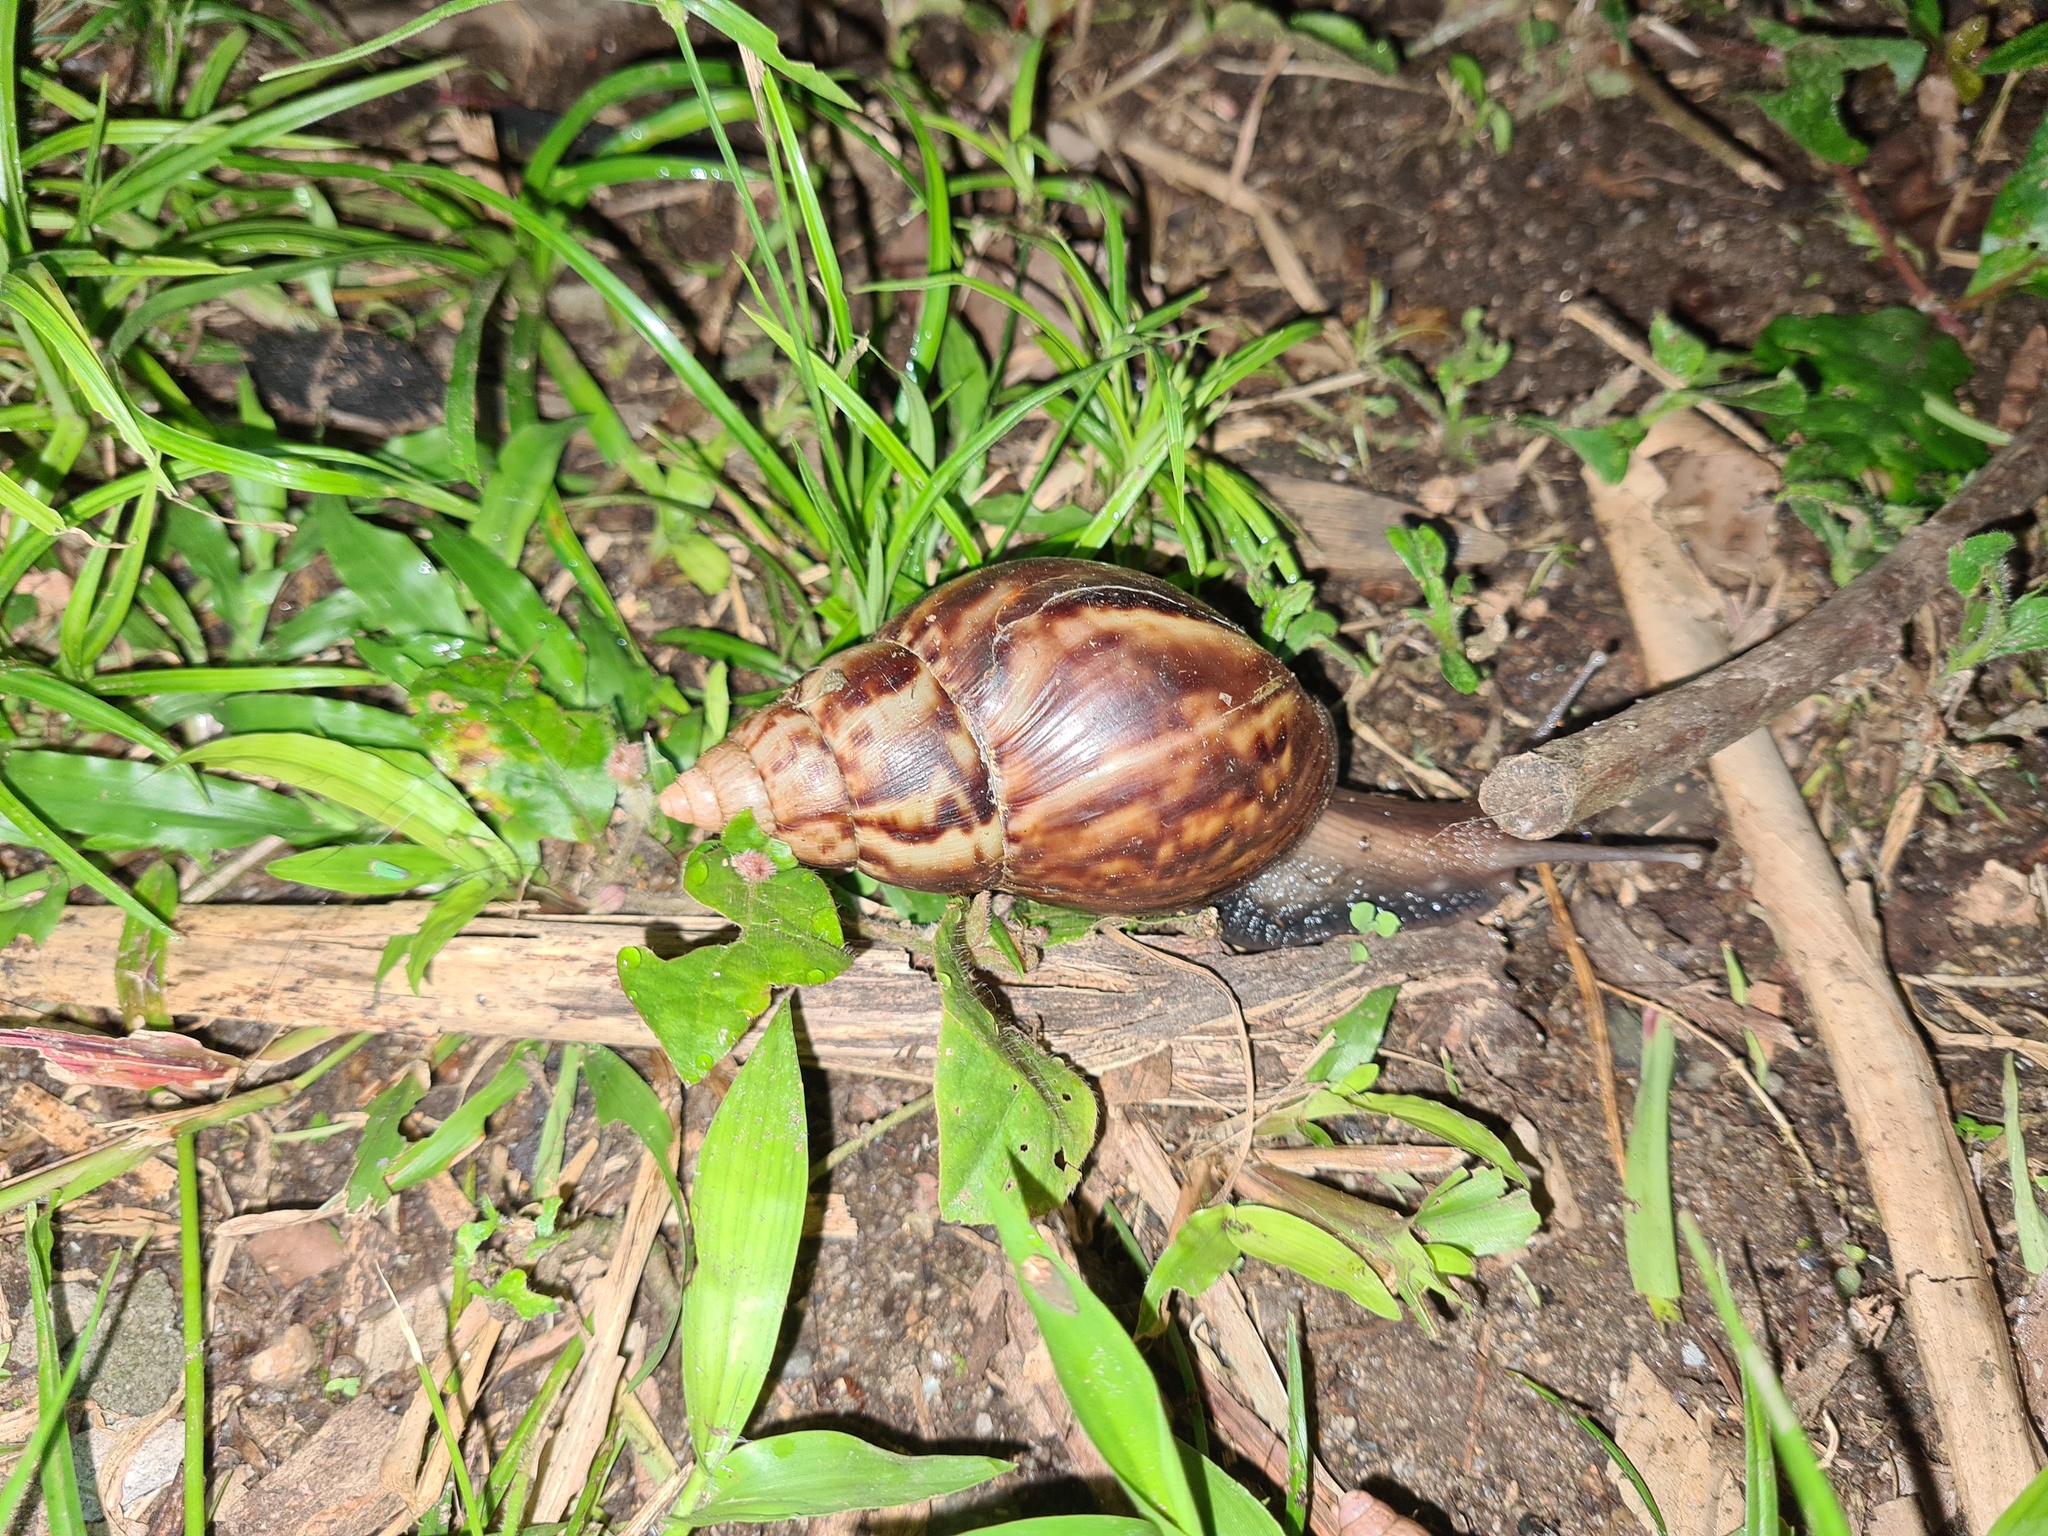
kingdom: Animalia
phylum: Mollusca
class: Gastropoda
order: Stylommatophora
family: Achatinidae
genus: Lissachatina
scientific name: Lissachatina fulica
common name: Giant african snail
